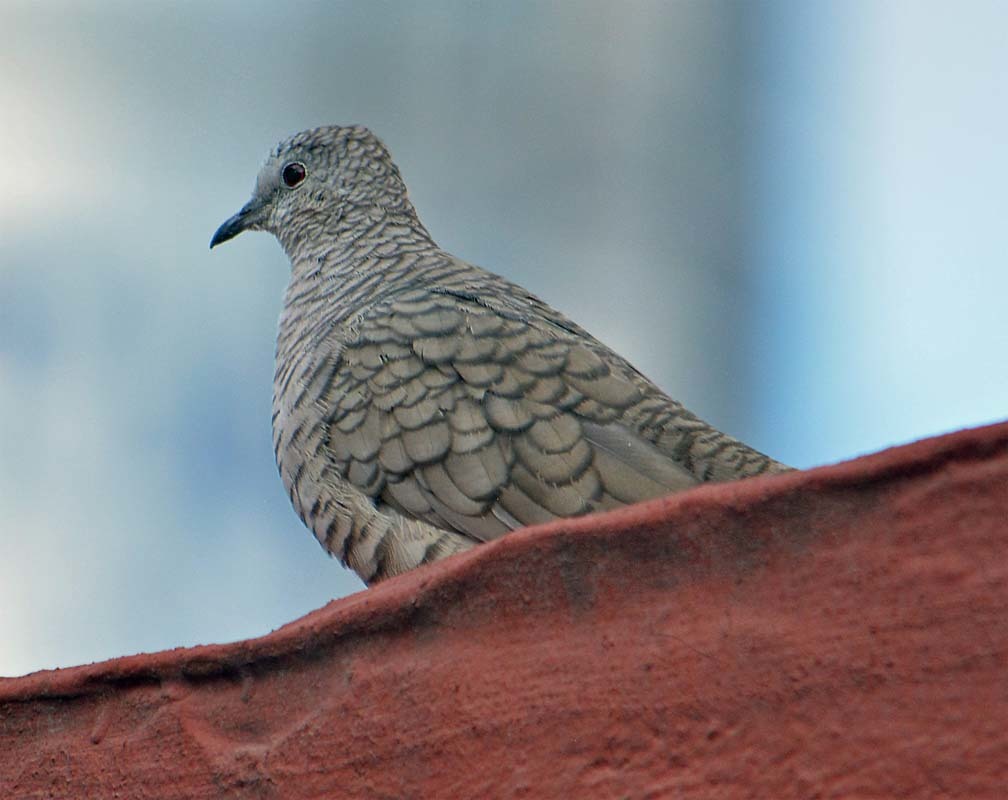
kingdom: Animalia
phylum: Chordata
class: Aves
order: Columbiformes
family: Columbidae
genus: Columbina
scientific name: Columbina inca
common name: Inca dove
